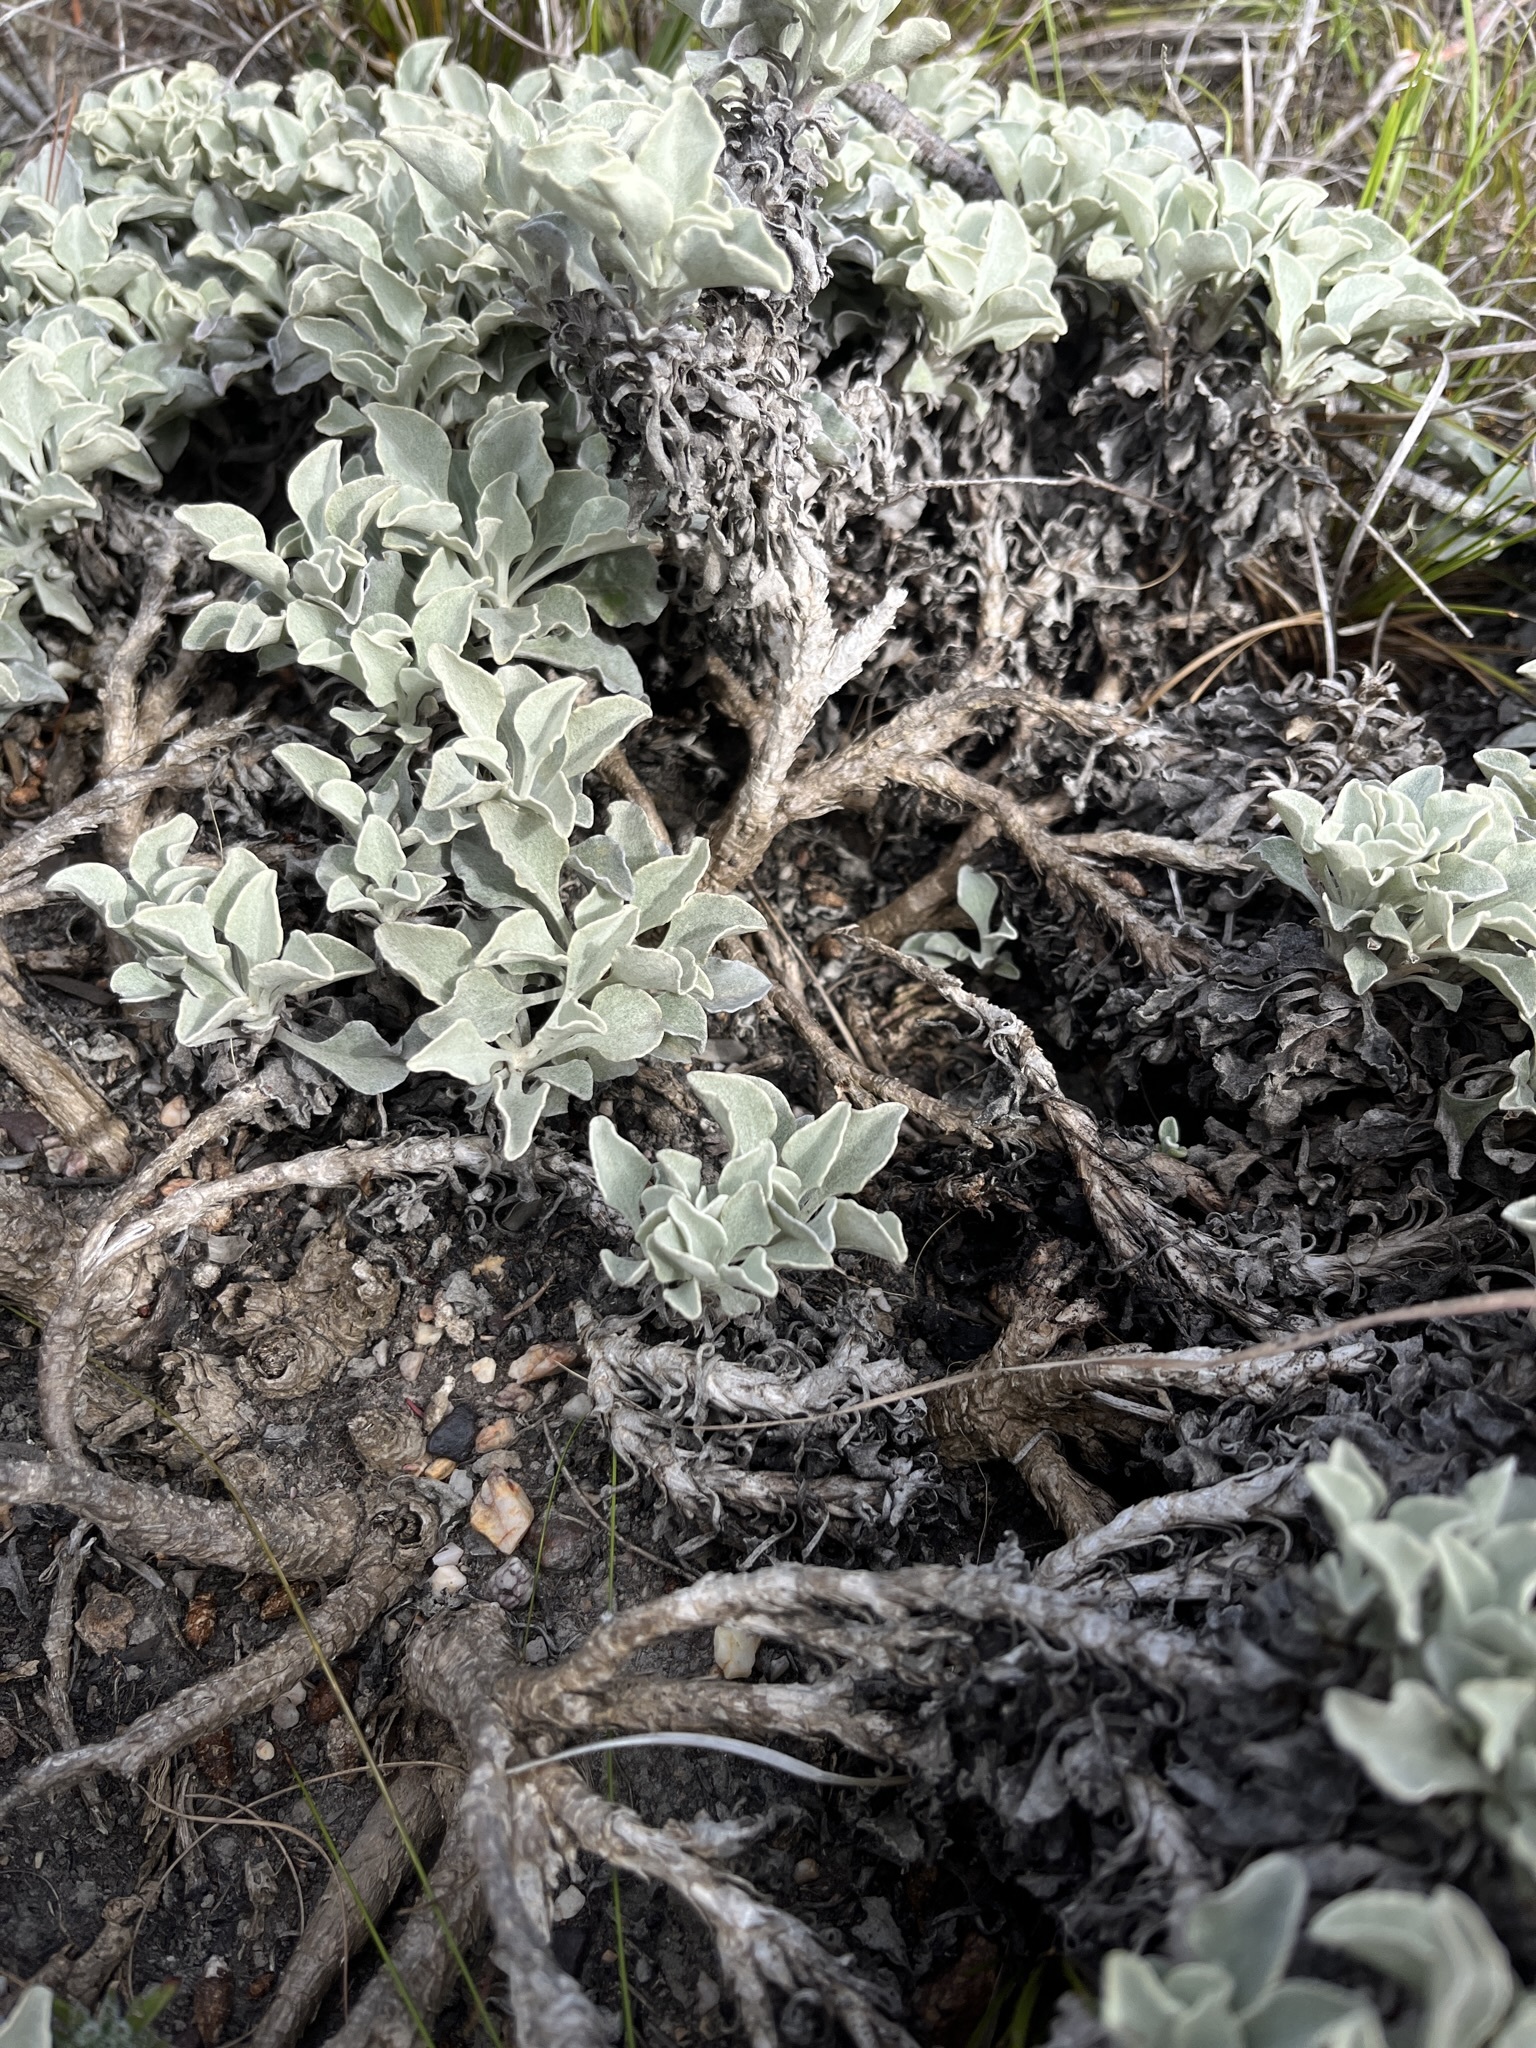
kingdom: Plantae
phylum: Tracheophyta
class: Magnoliopsida
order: Asterales
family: Asteraceae
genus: Osteospermum
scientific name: Osteospermum tomentosum
